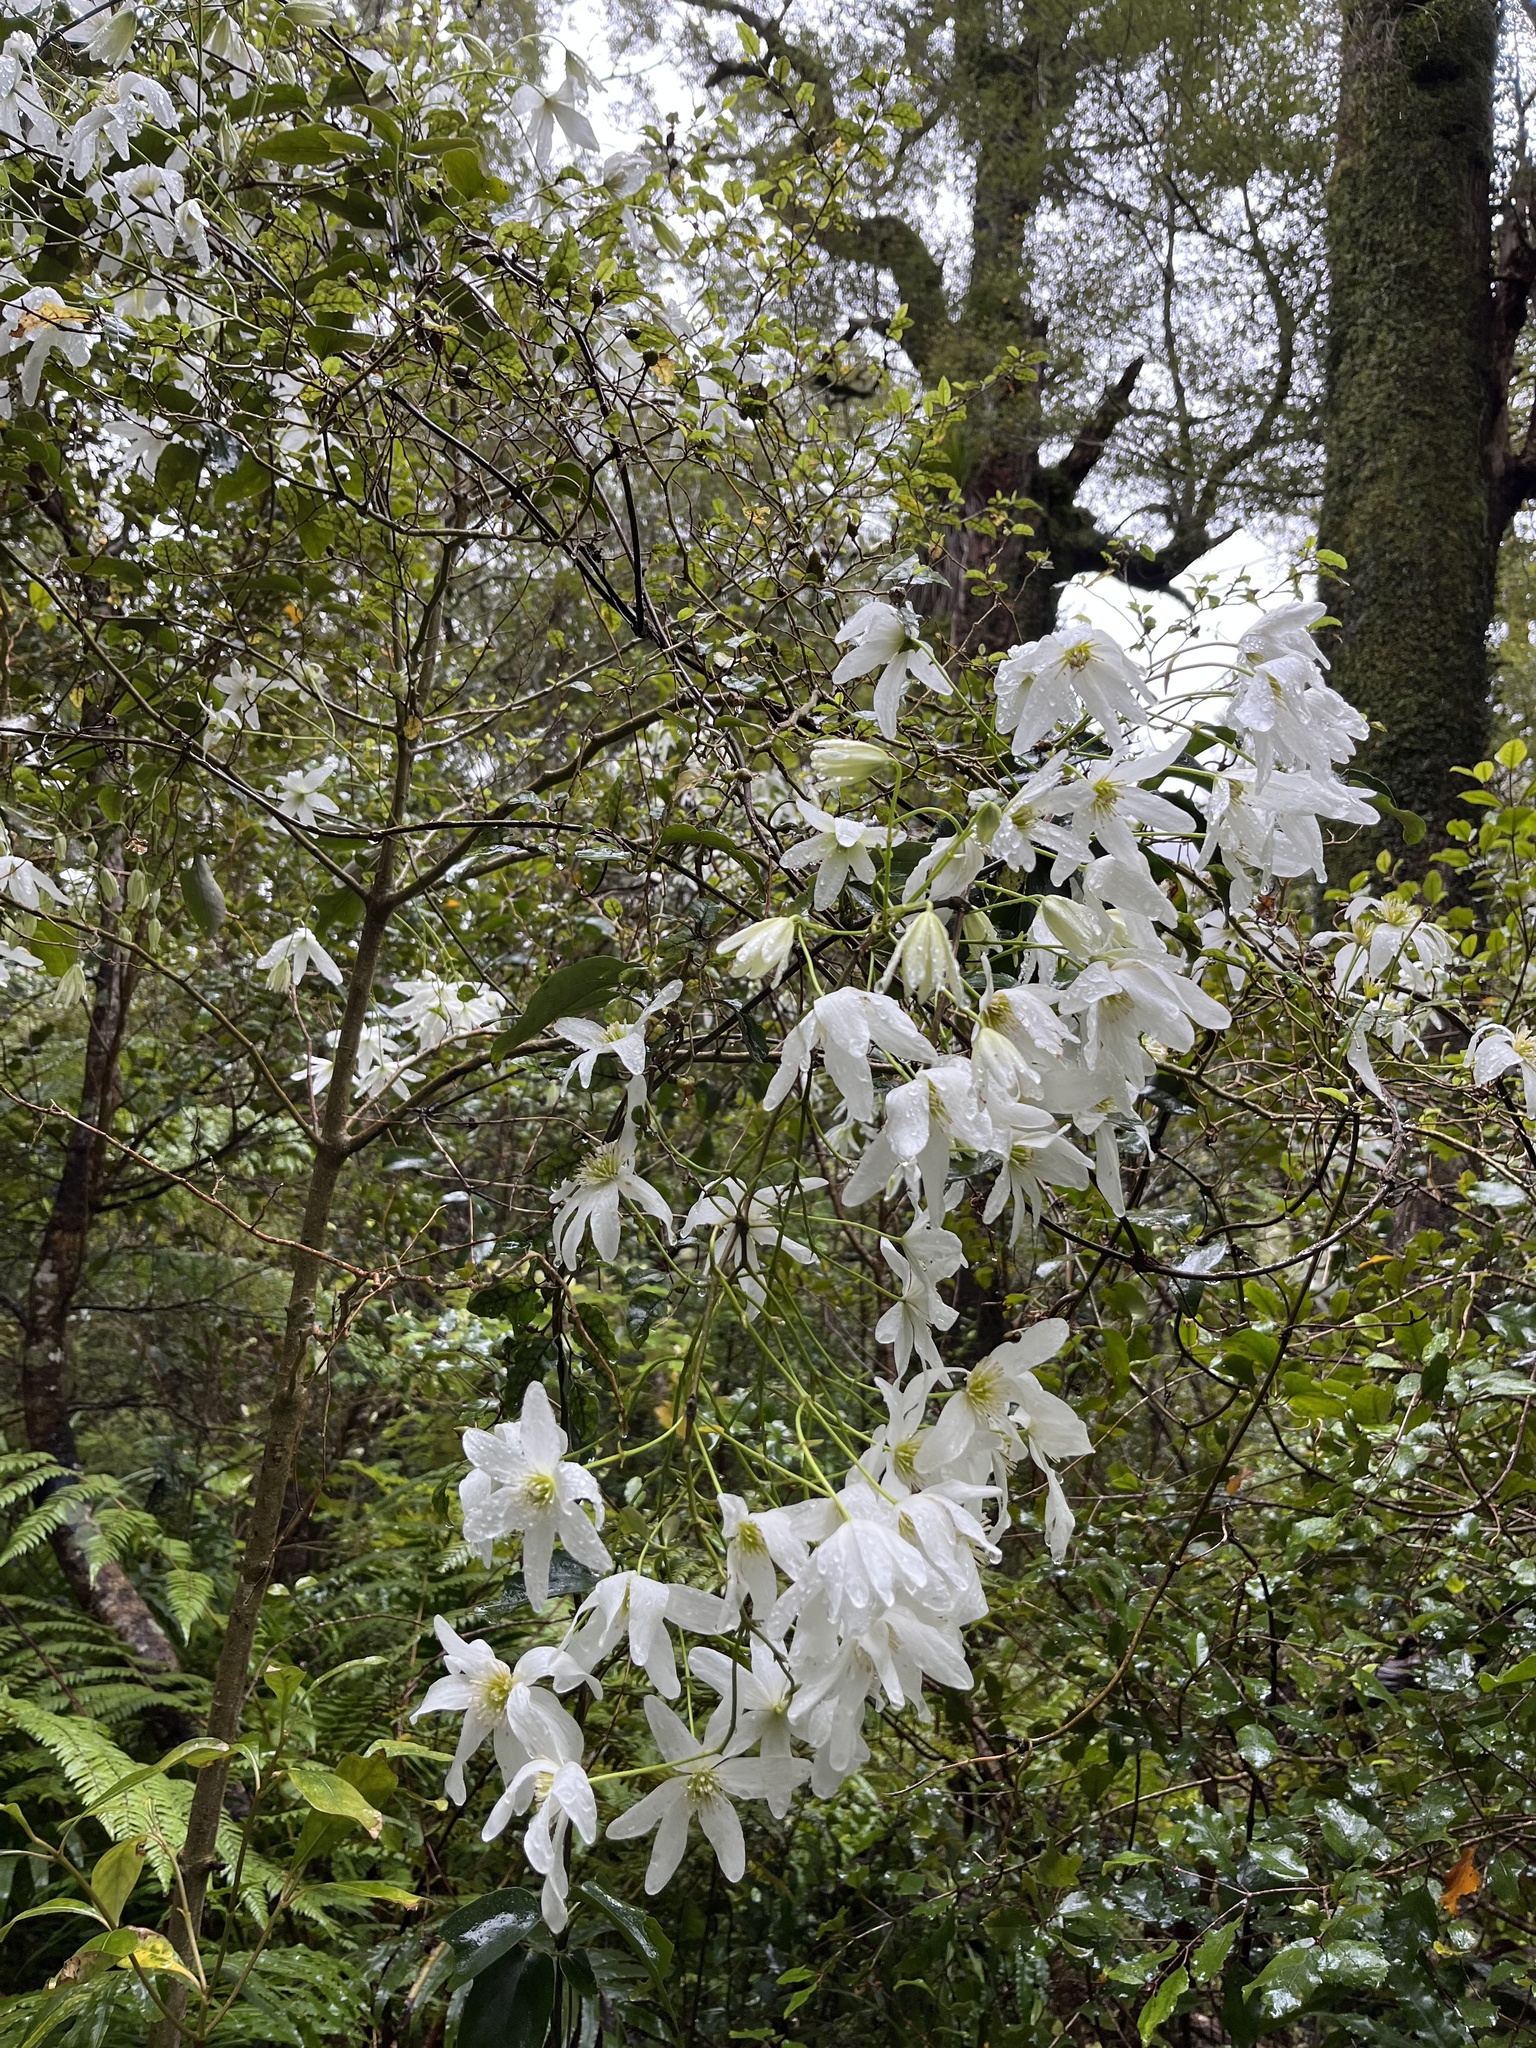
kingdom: Plantae
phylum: Tracheophyta
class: Magnoliopsida
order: Ranunculales
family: Ranunculaceae
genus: Clematis
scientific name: Clematis paniculata
